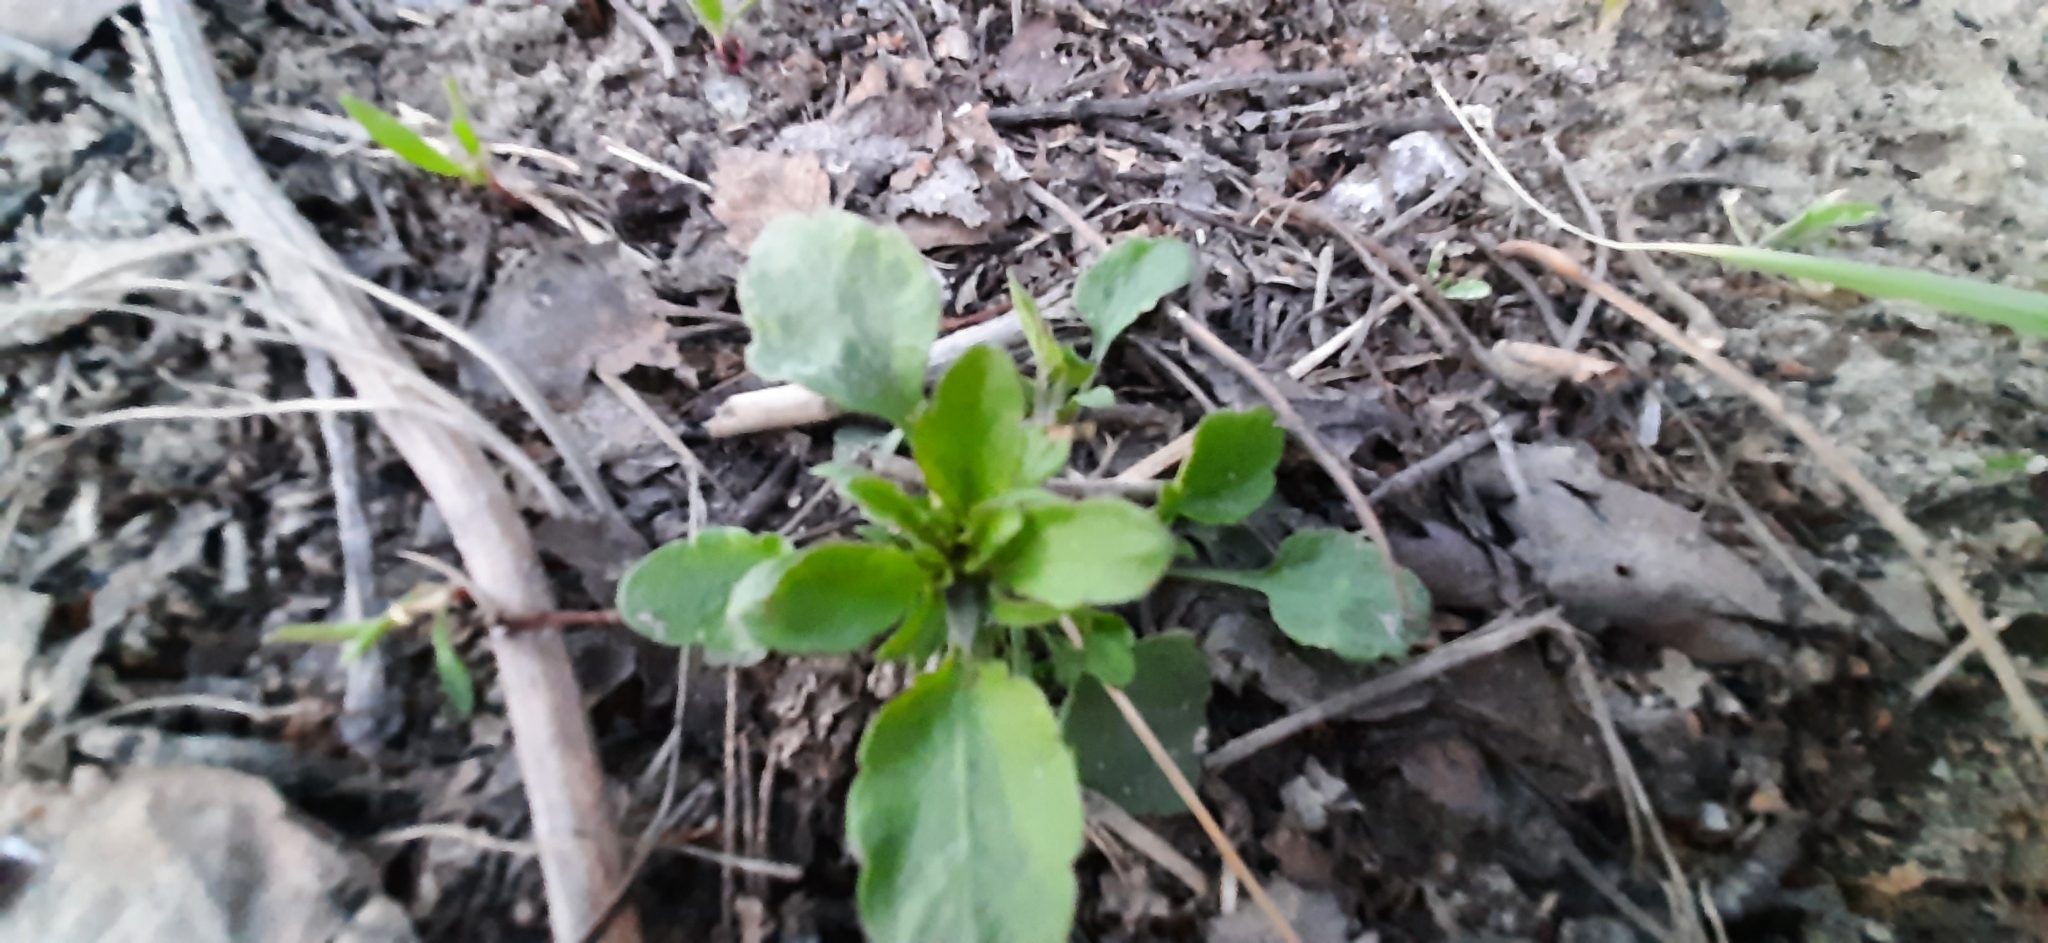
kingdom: Plantae
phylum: Tracheophyta
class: Magnoliopsida
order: Malpighiales
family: Violaceae
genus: Viola
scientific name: Viola arvensis
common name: Field pansy
